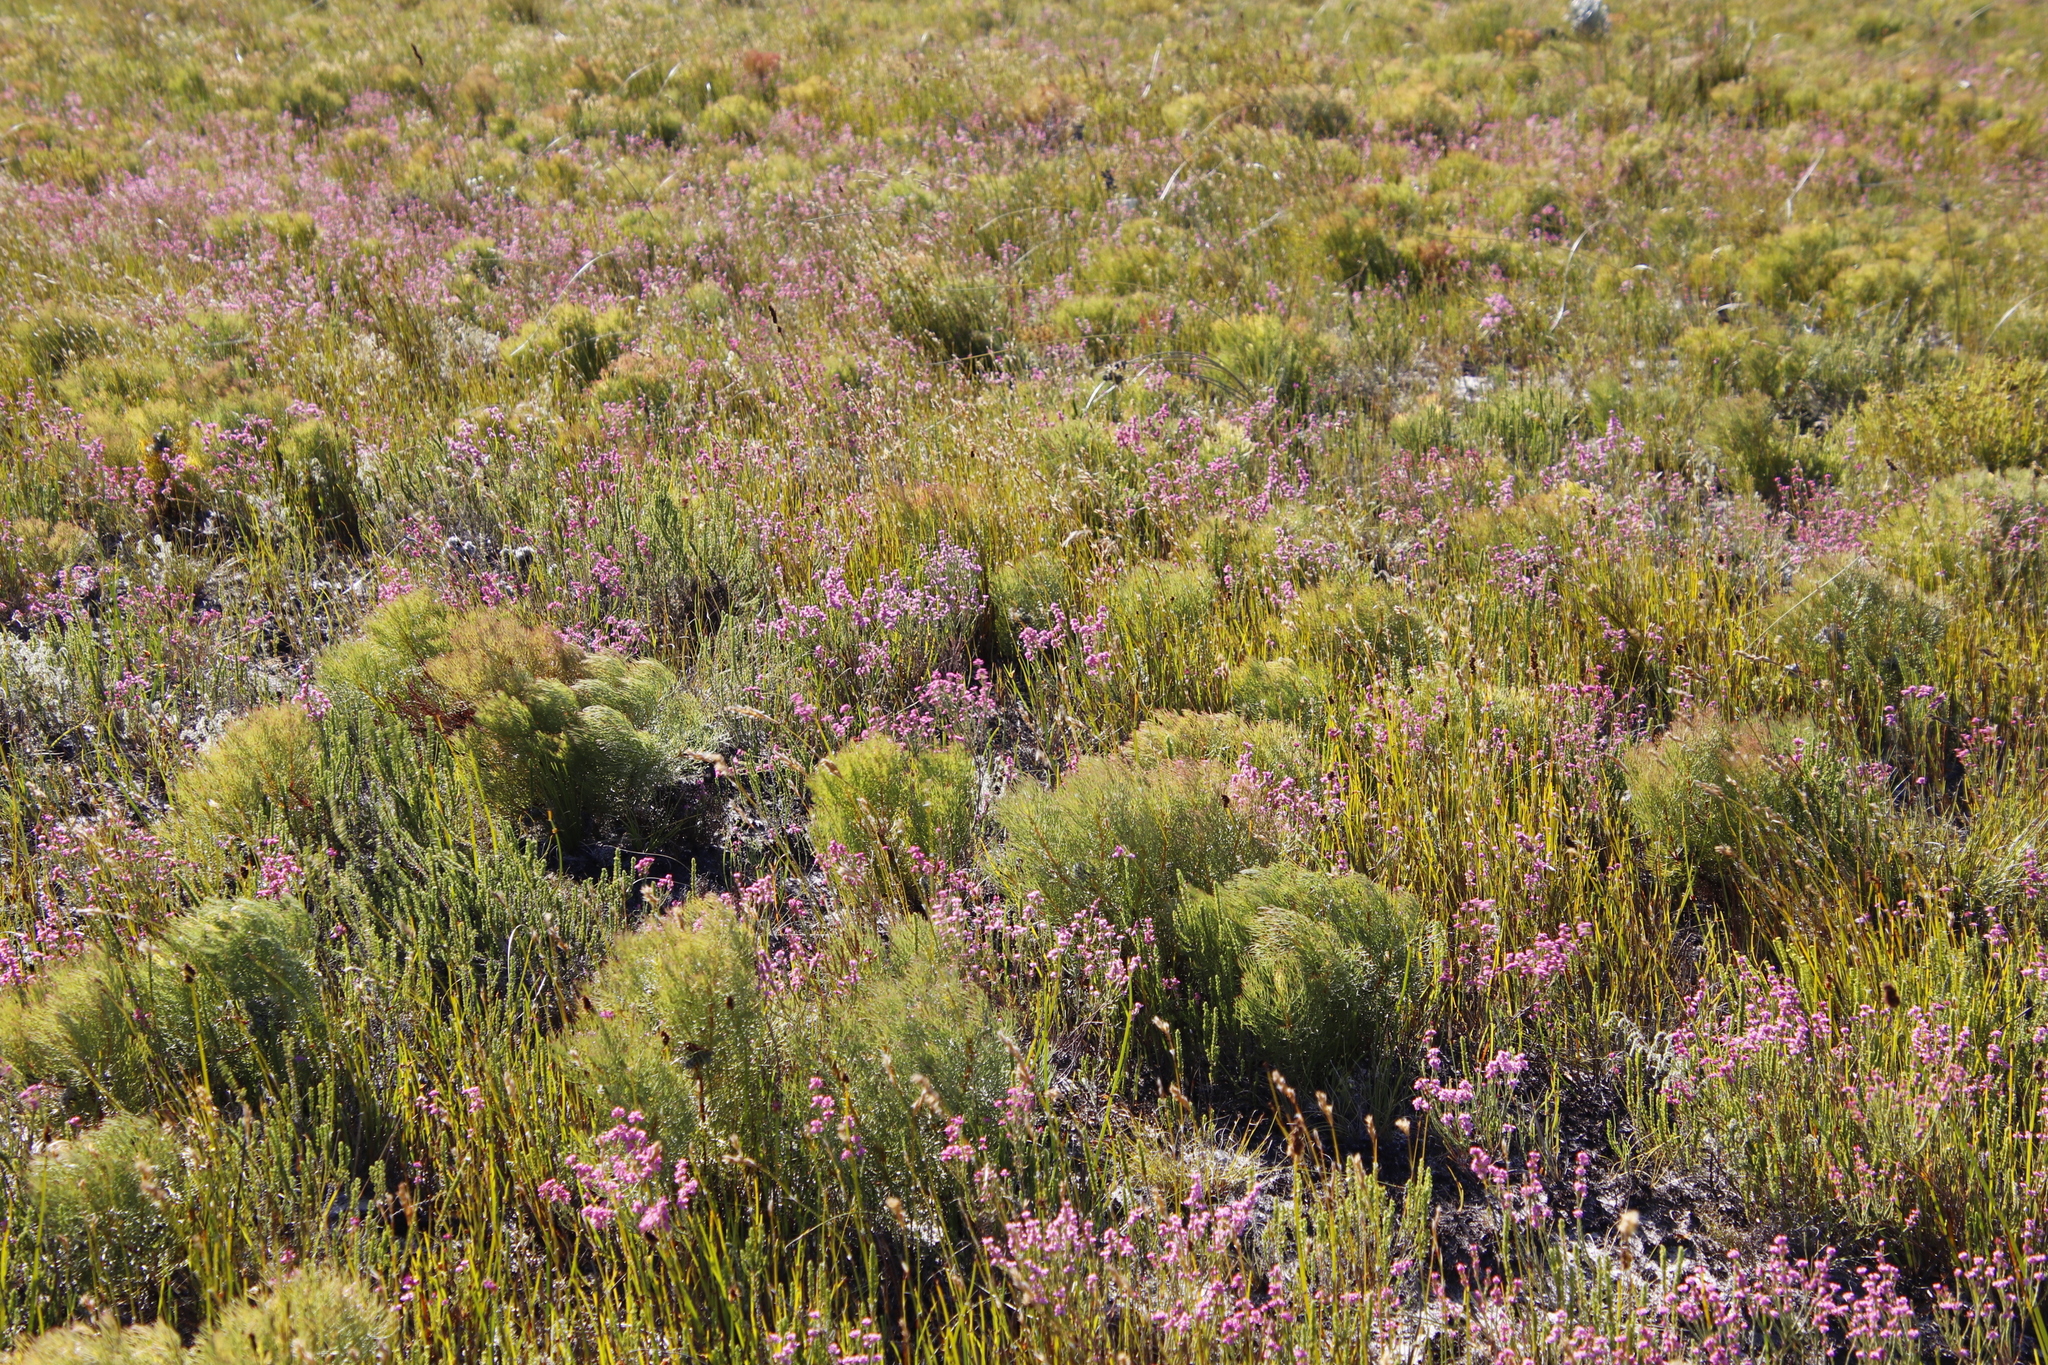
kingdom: Plantae
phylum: Tracheophyta
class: Magnoliopsida
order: Proteales
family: Proteaceae
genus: Serruria
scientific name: Serruria glomerata
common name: Cluster spiderhead
